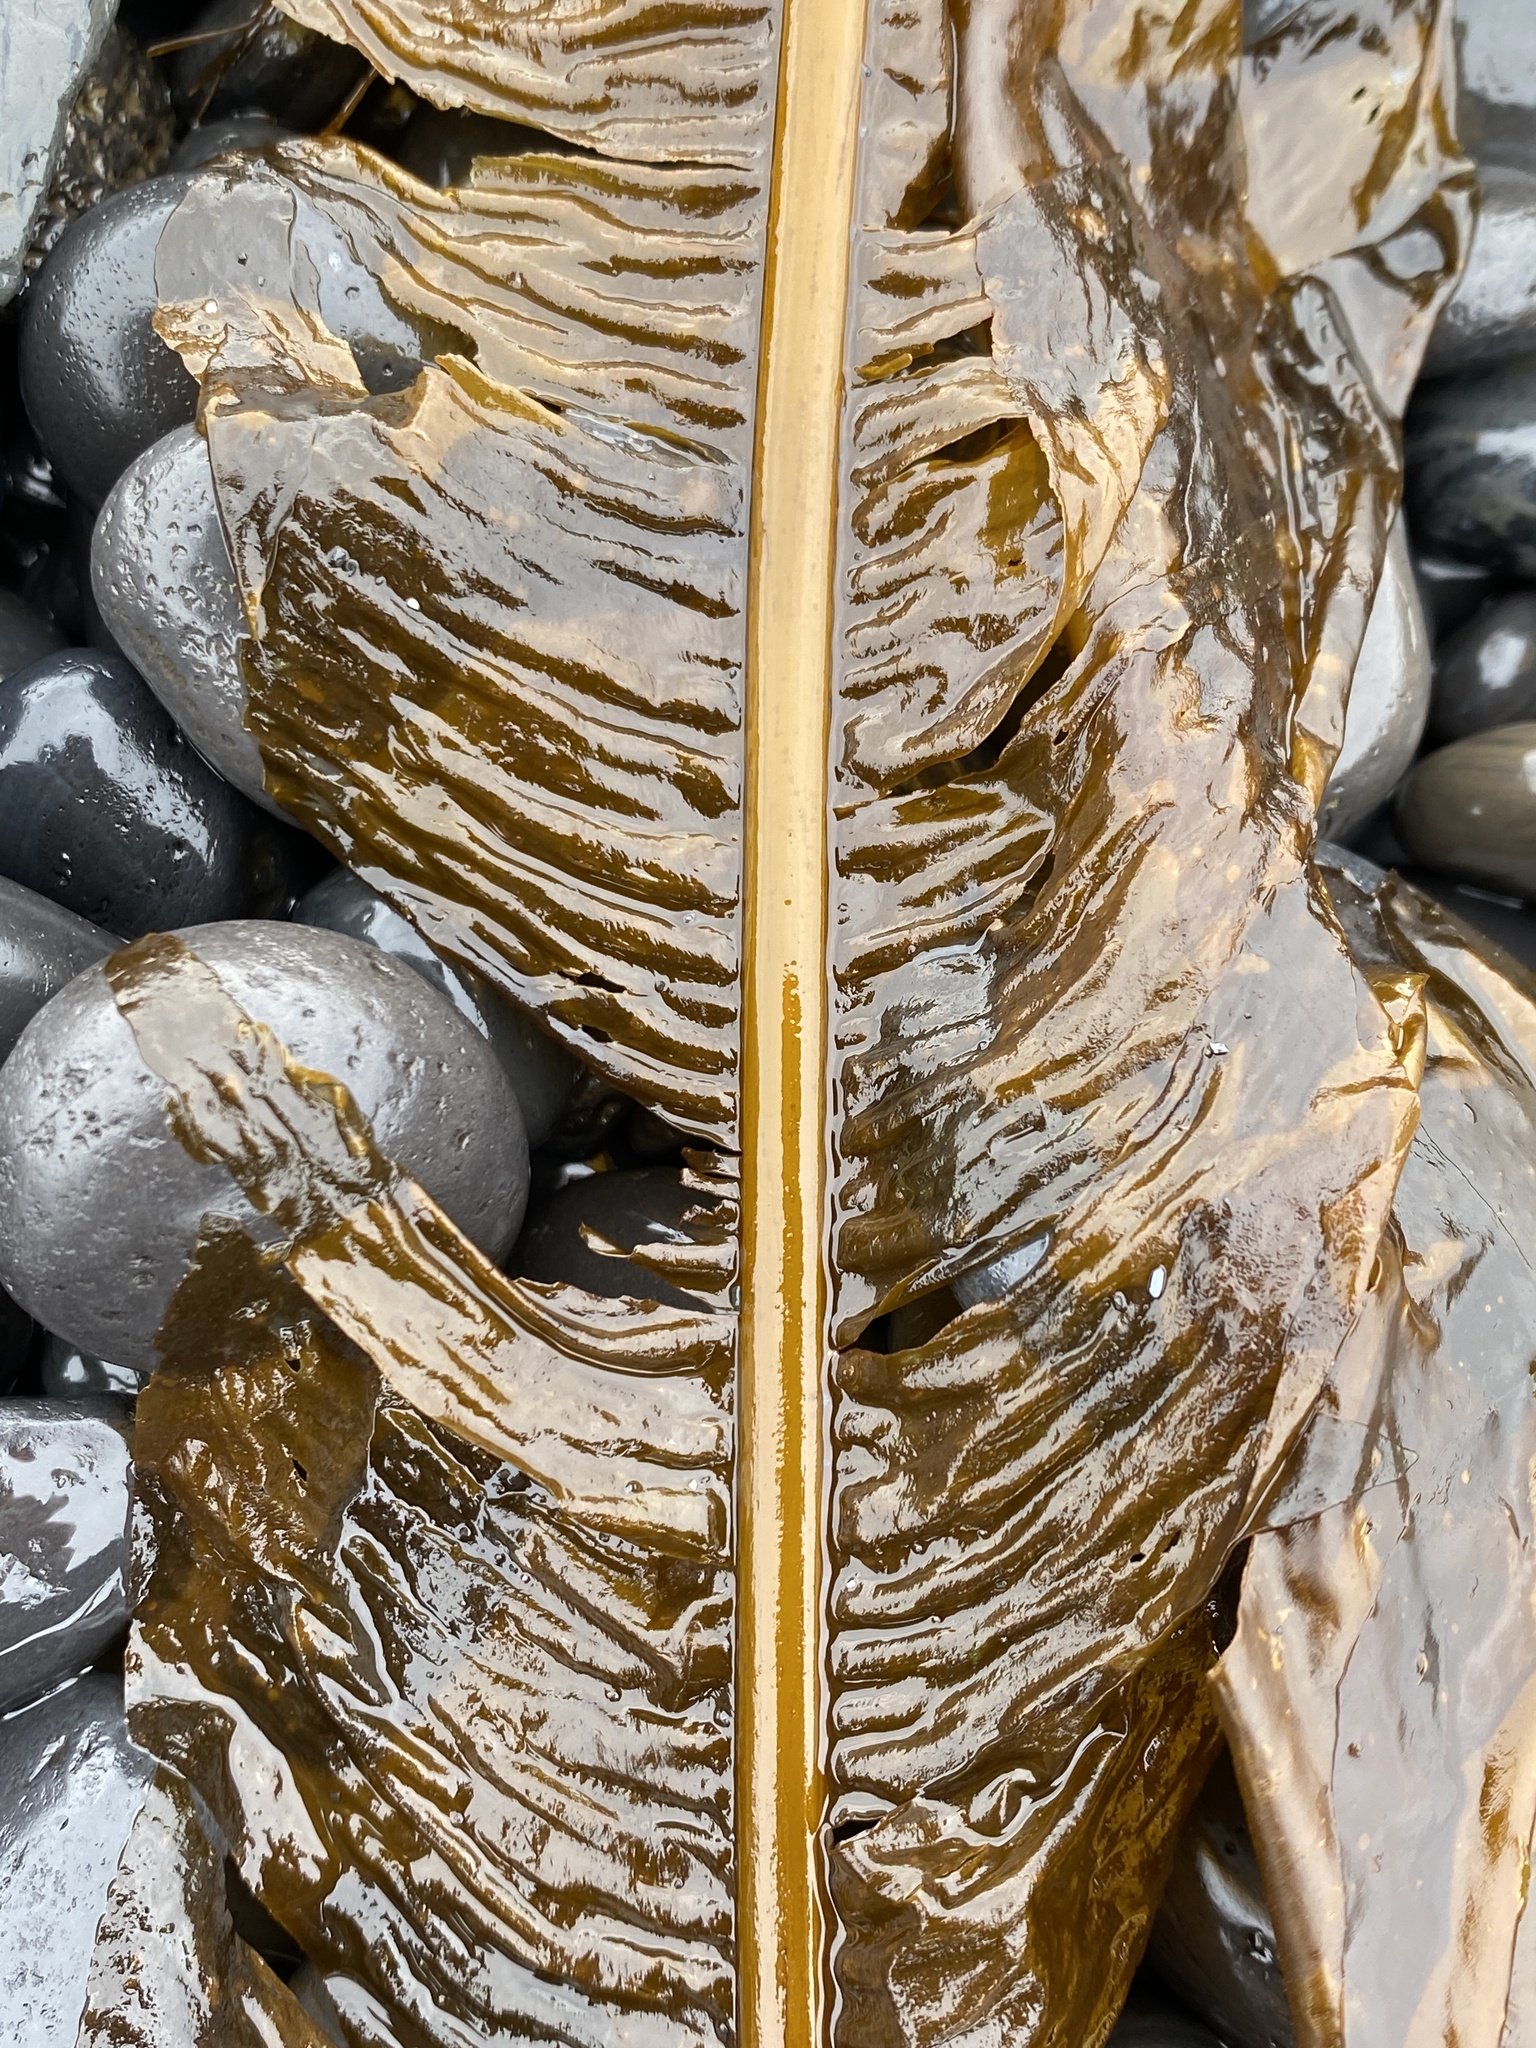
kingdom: Chromista
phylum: Ochrophyta
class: Phaeophyceae
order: Laminariales
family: Alariaceae
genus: Alaria
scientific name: Alaria esculenta
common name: Dabberlocks
